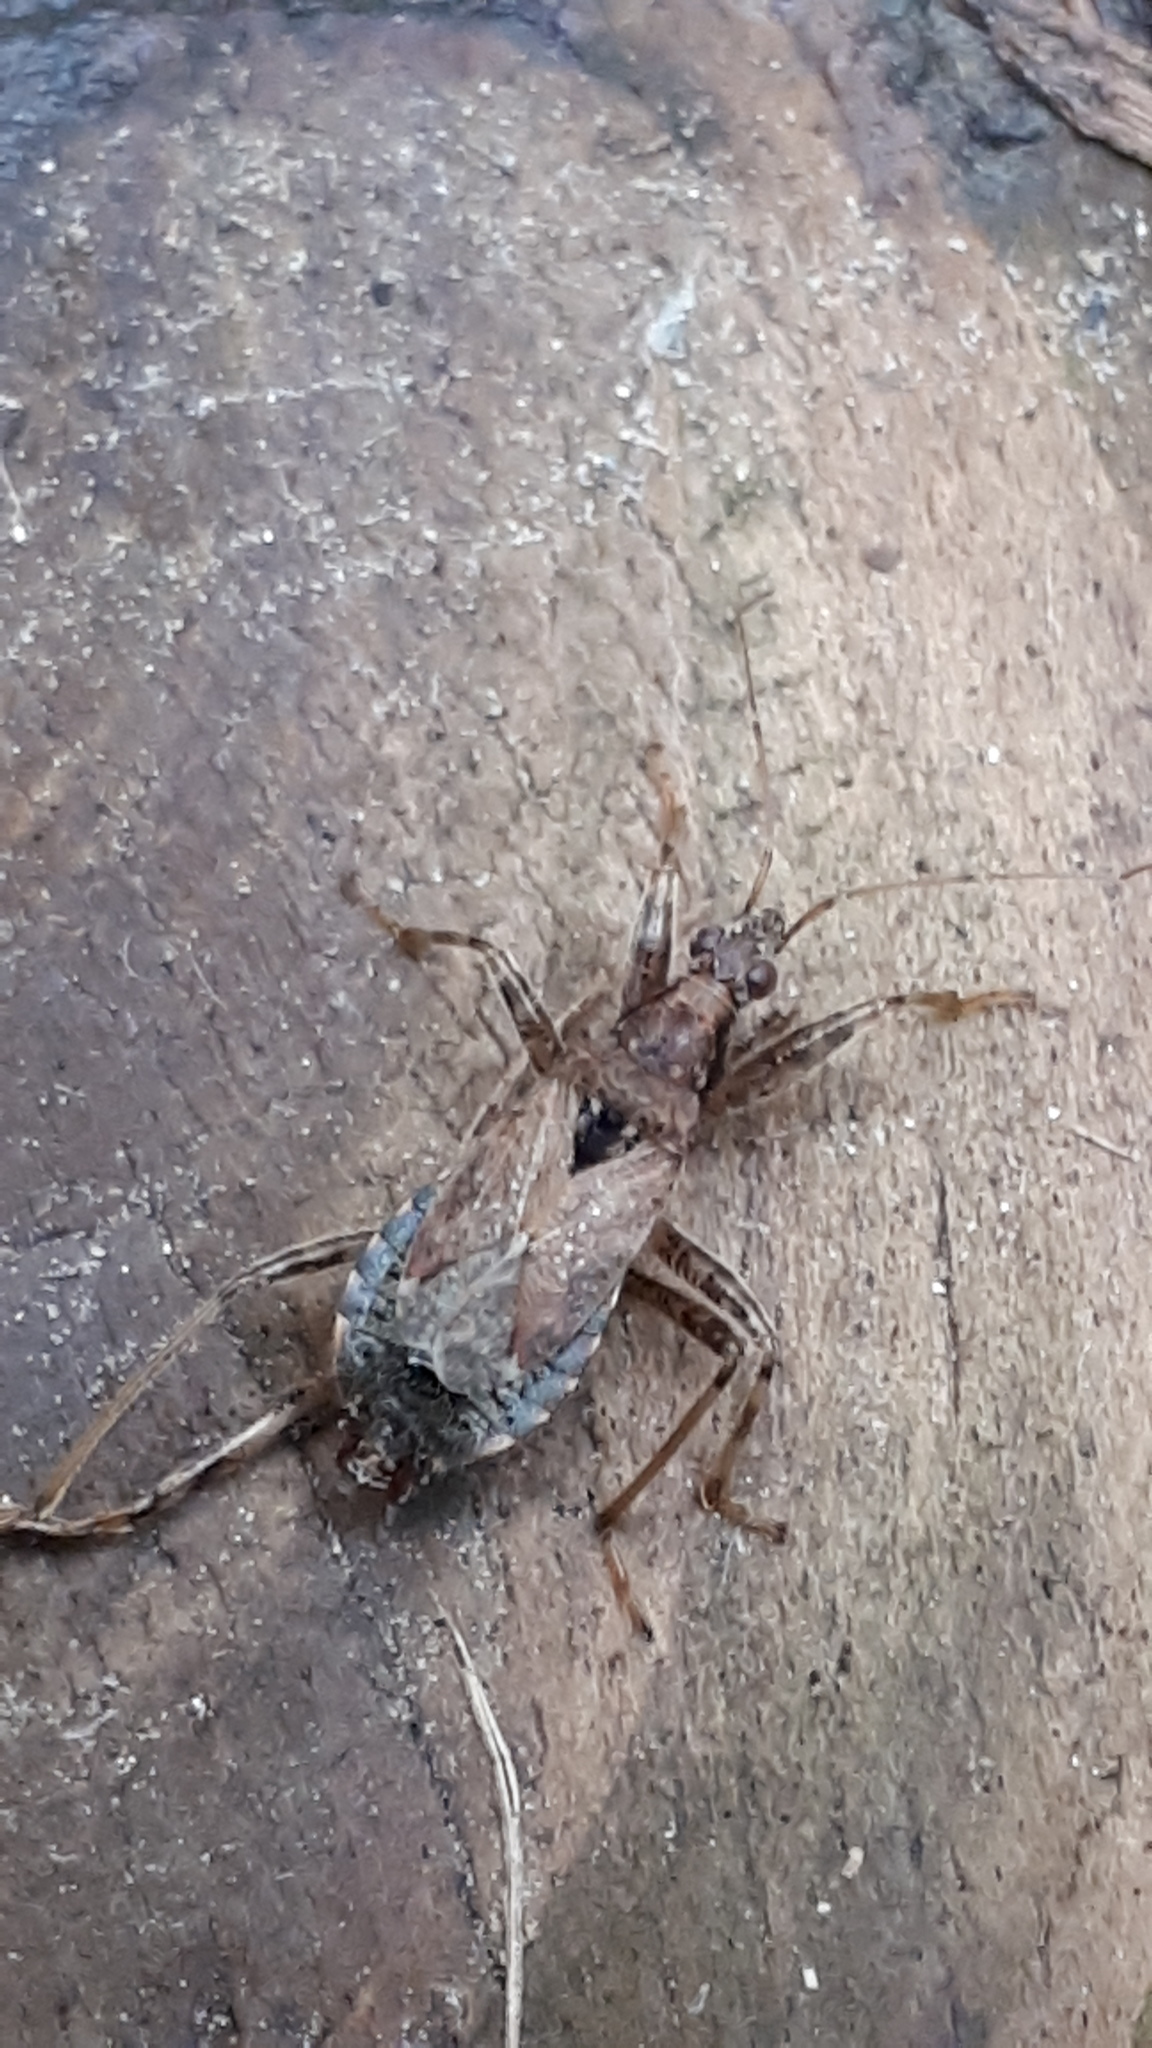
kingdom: Animalia
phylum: Arthropoda
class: Insecta
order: Hemiptera
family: Nabidae
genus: Himacerus
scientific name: Himacerus mirmicoides
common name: Ant damsel bug
